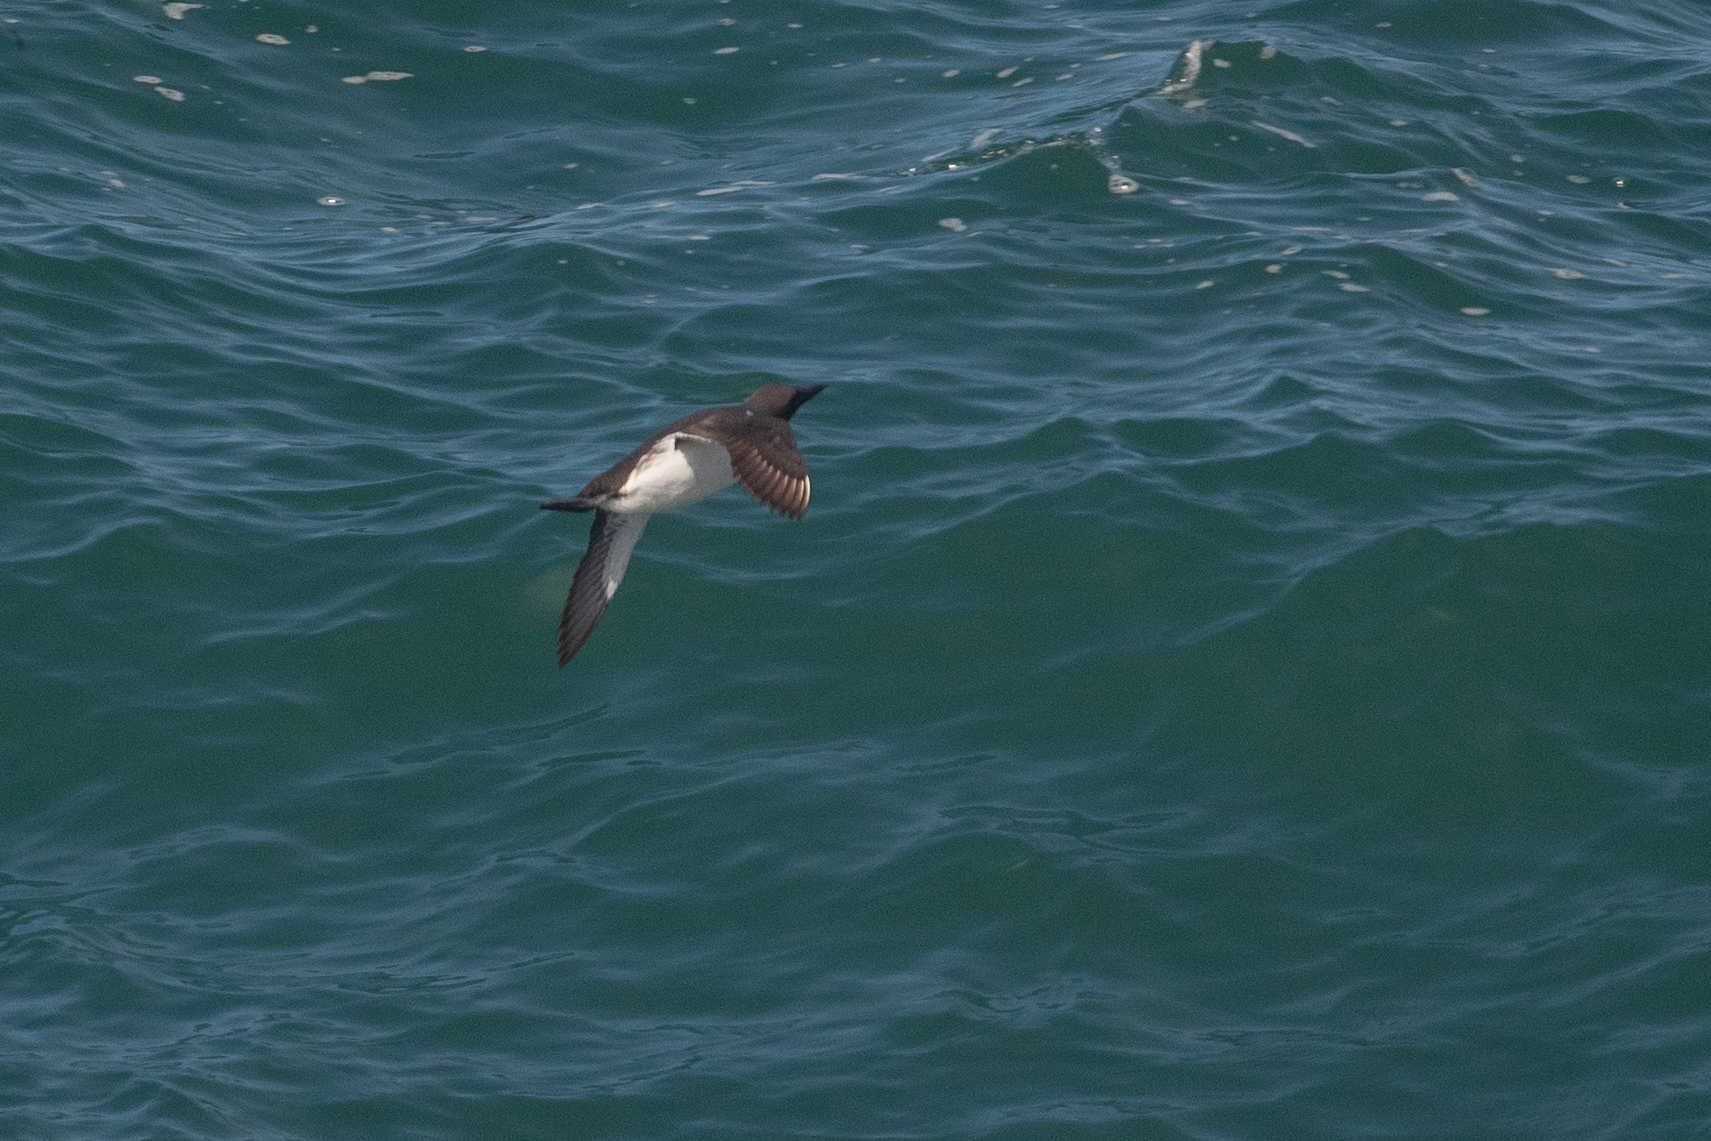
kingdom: Animalia
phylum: Chordata
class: Aves
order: Charadriiformes
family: Alcidae
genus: Uria
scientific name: Uria aalge
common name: Common murre
